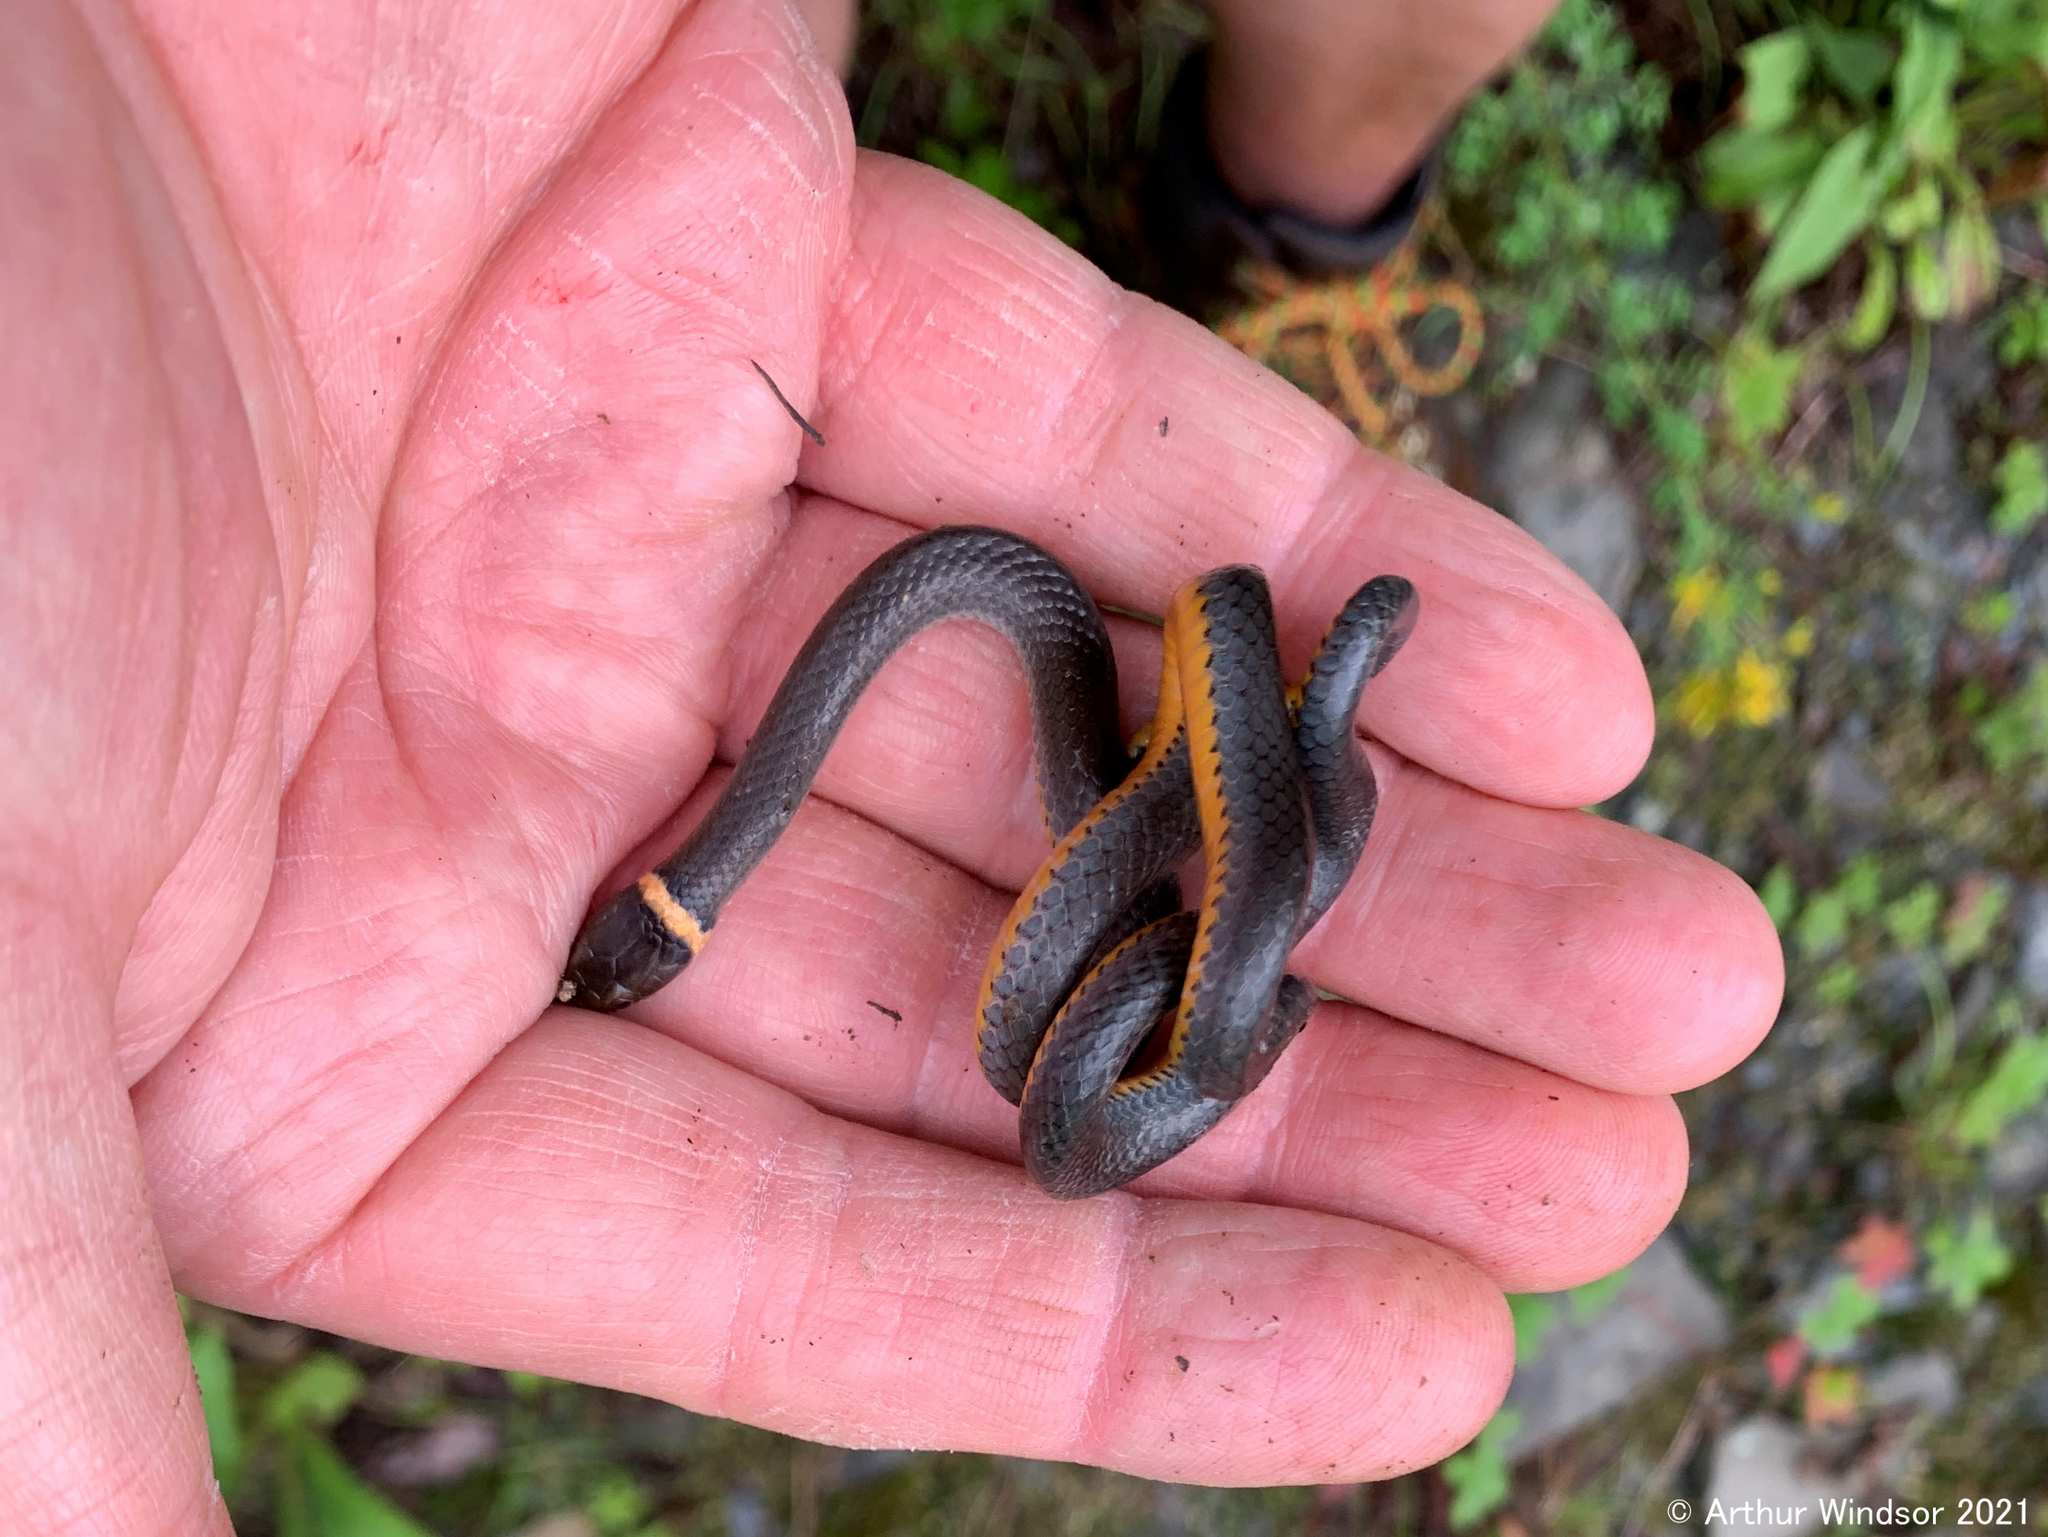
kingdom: Animalia
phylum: Chordata
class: Squamata
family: Colubridae
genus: Diadophis
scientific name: Diadophis punctatus
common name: Ringneck snake
